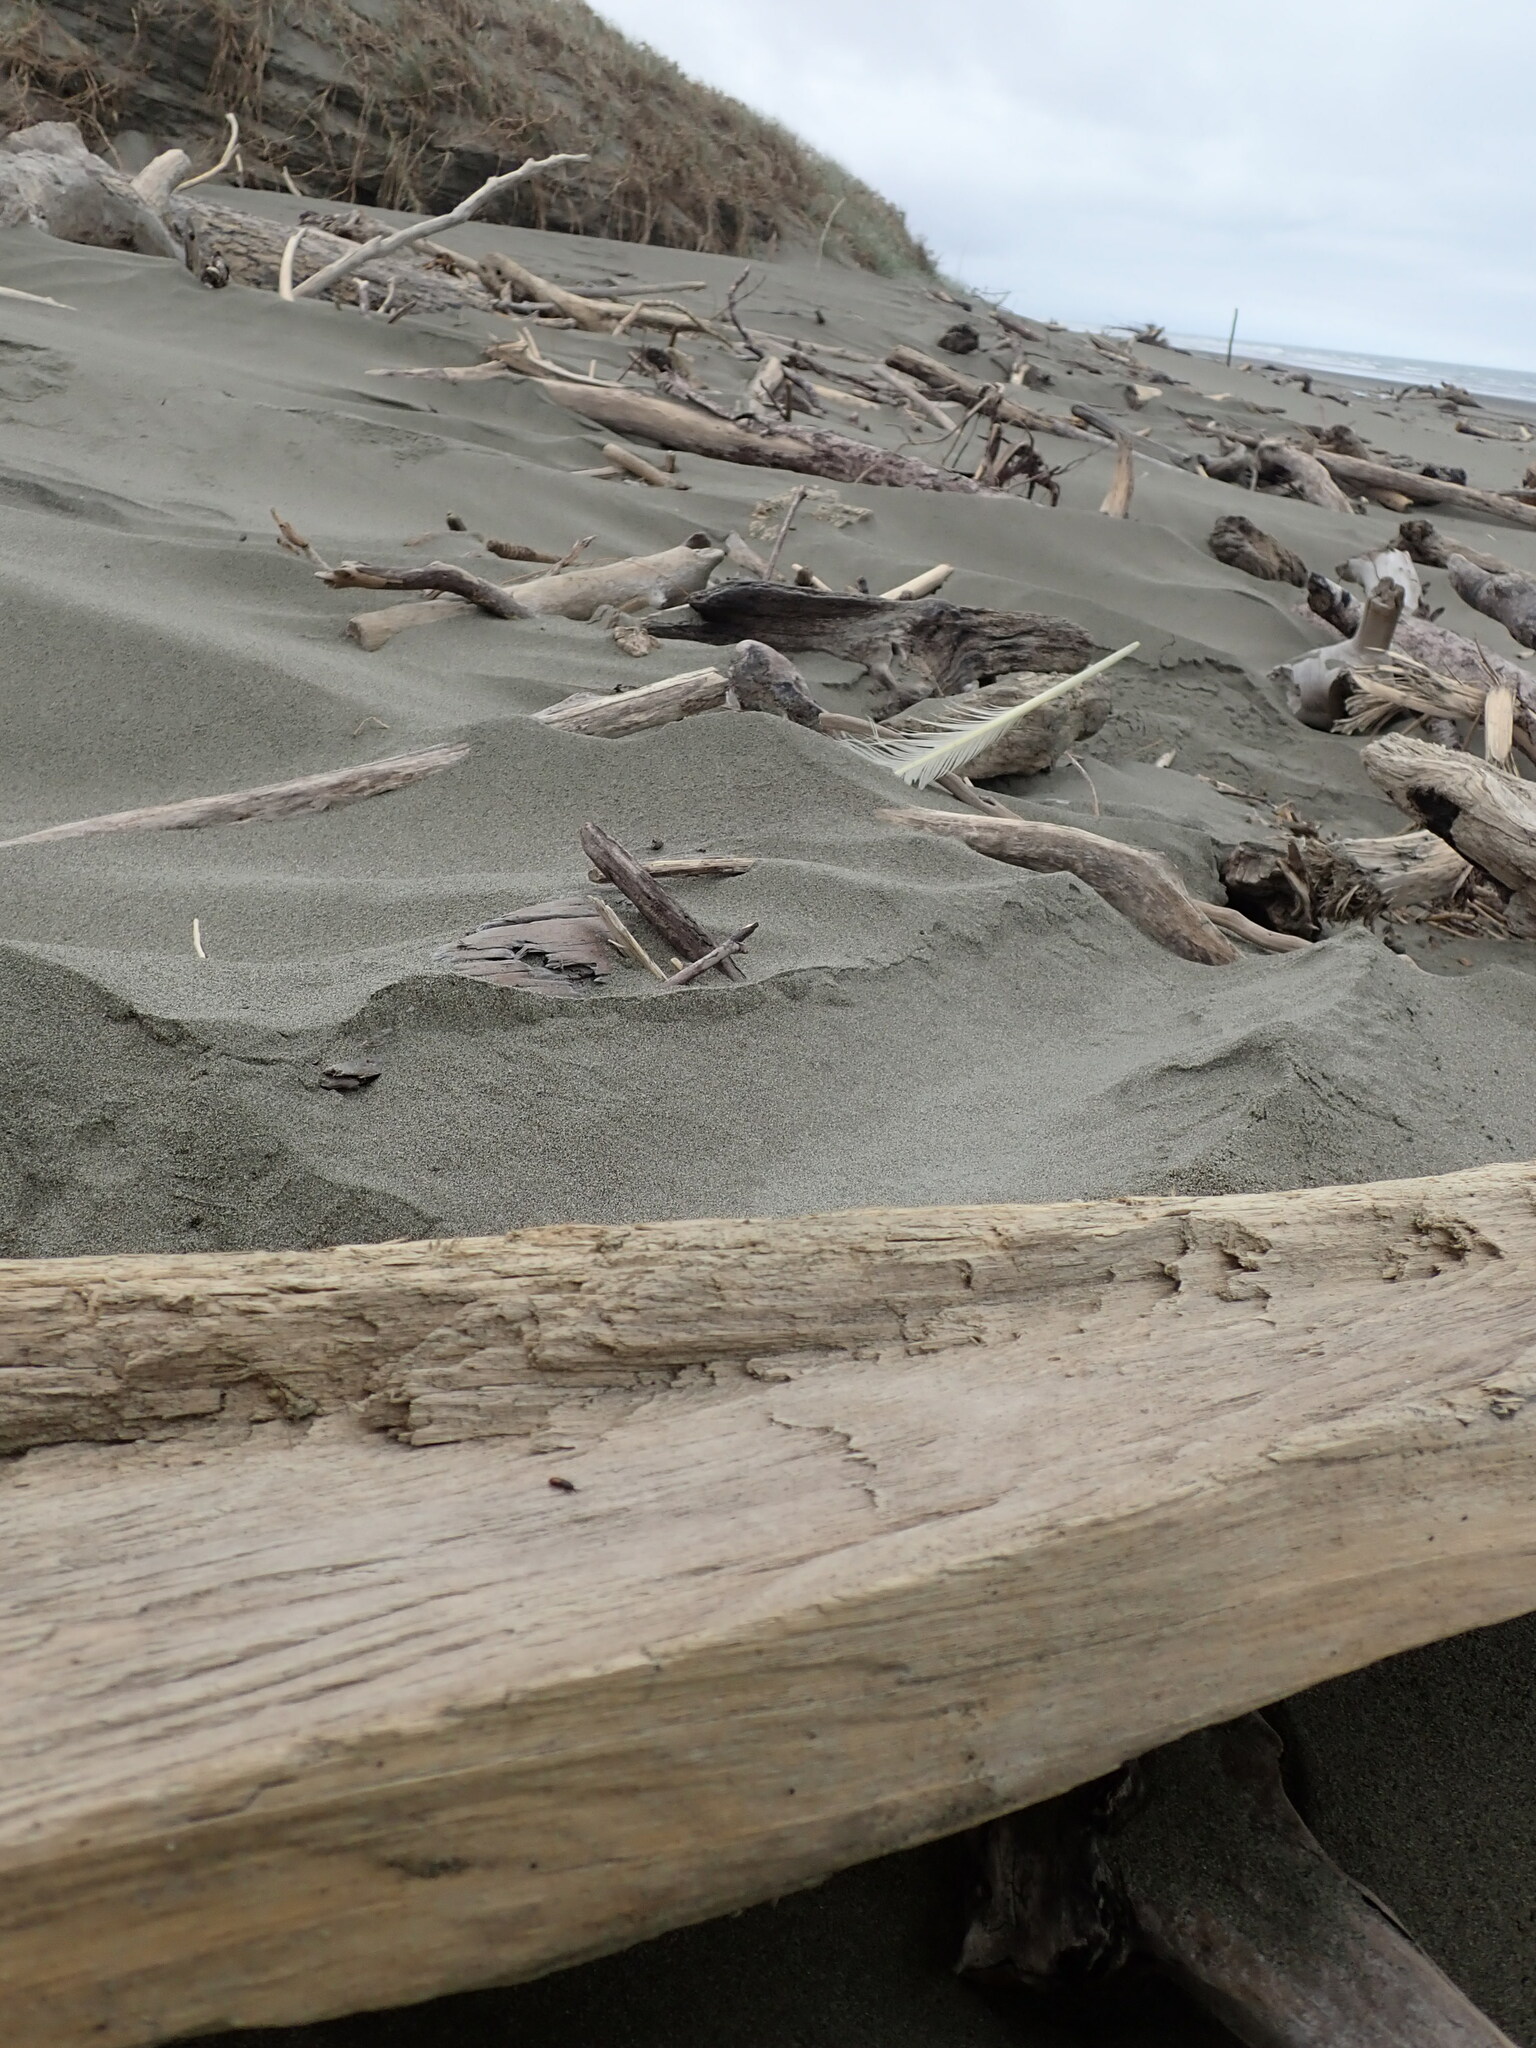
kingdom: Animalia
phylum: Arthropoda
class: Insecta
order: Coleoptera
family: Curculionidae
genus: Mesites
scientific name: Mesites pallidipennis
